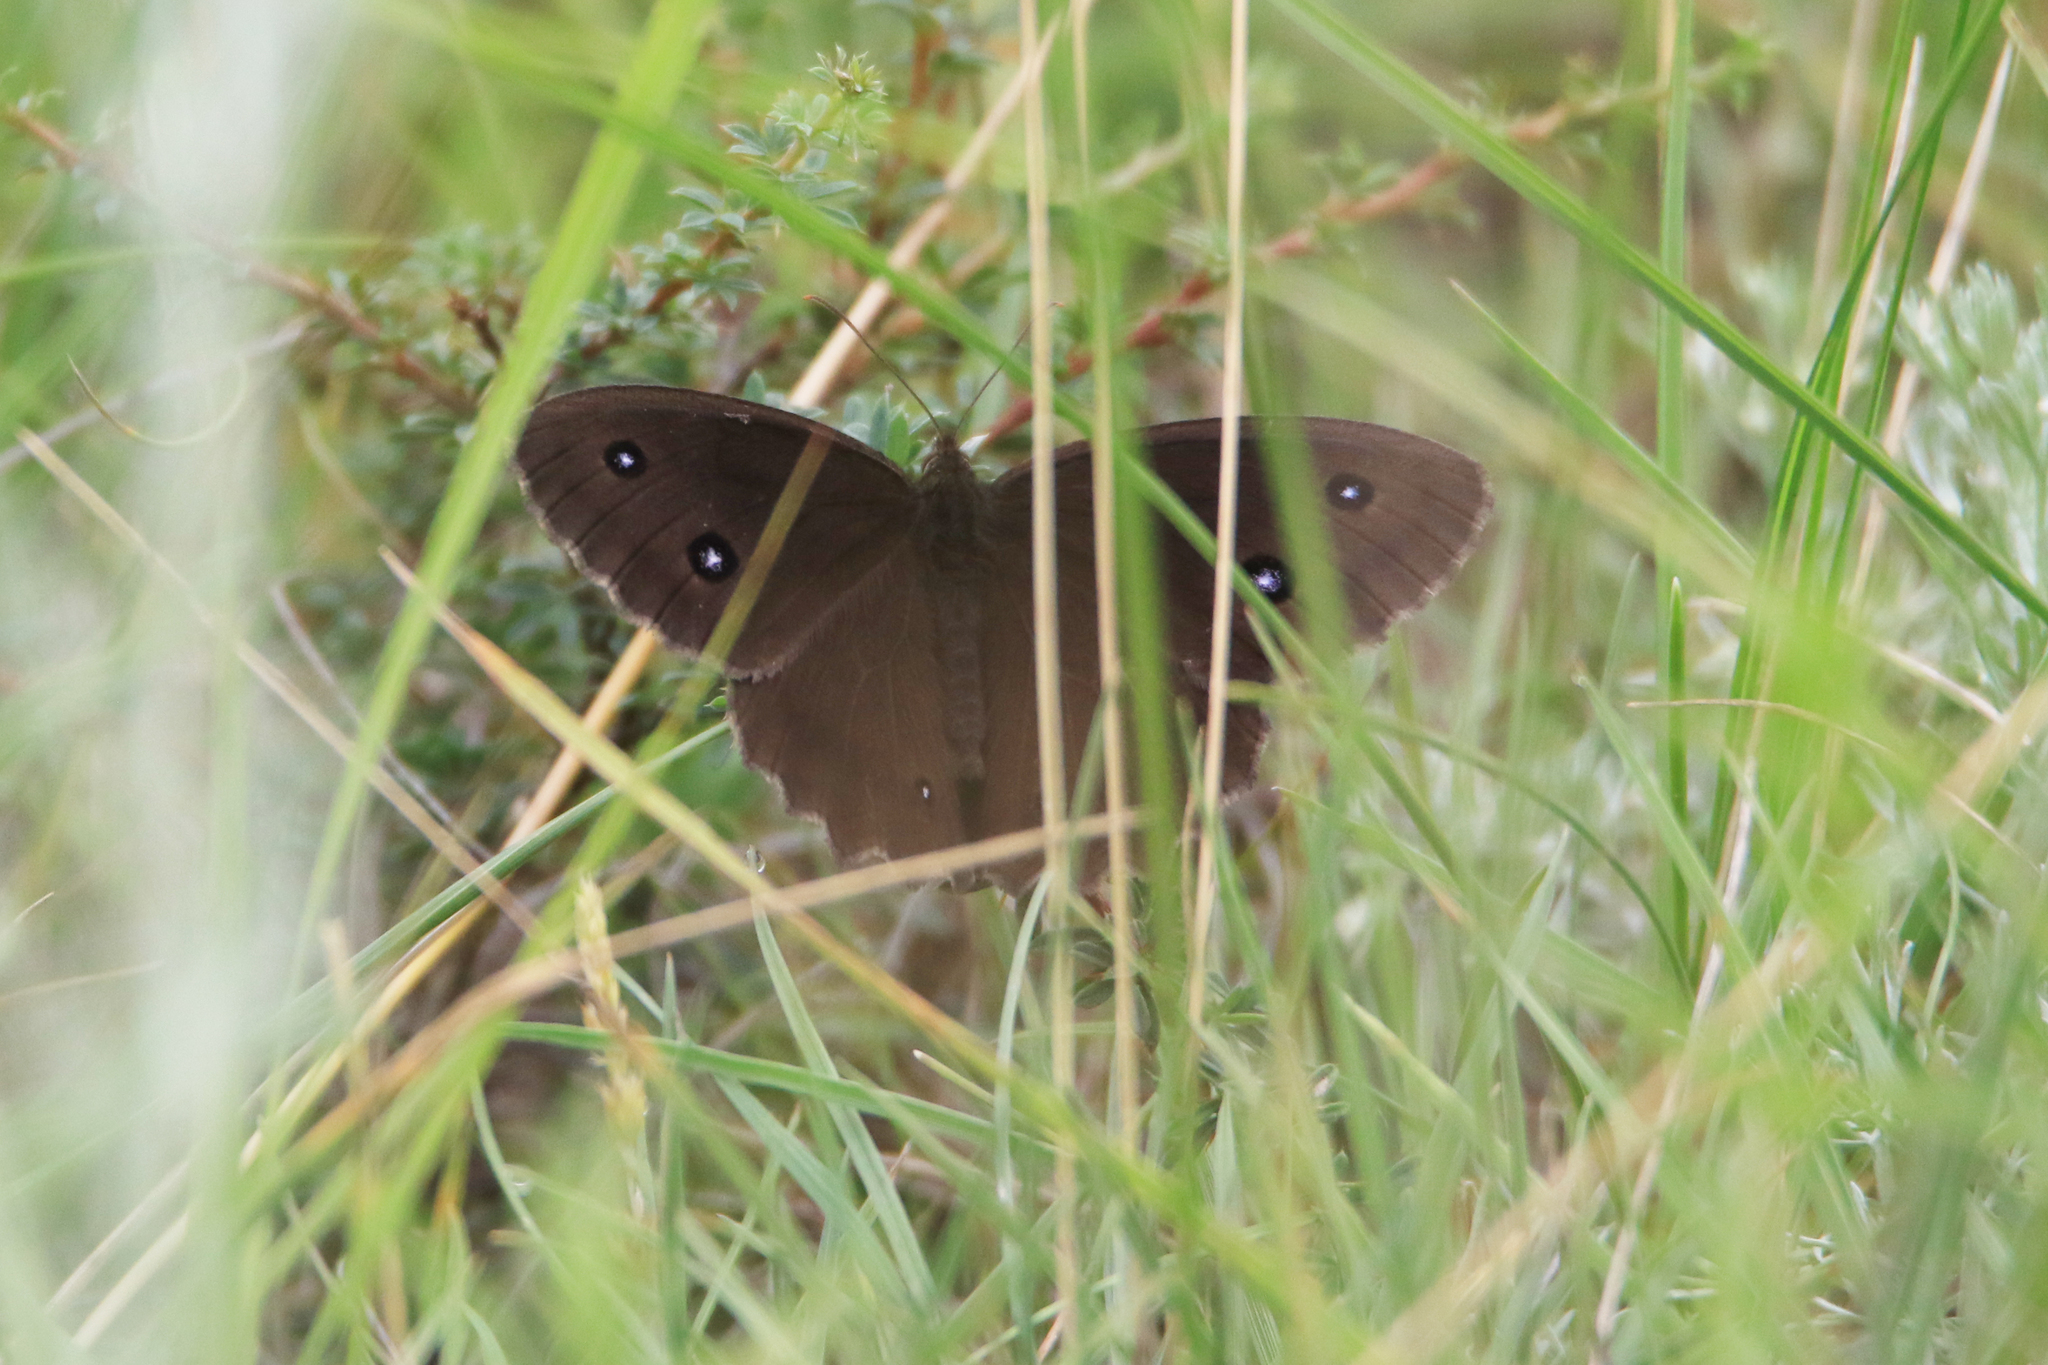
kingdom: Animalia
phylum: Arthropoda
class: Insecta
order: Lepidoptera
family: Nymphalidae
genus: Minois
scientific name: Minois dryas
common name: Dryad
